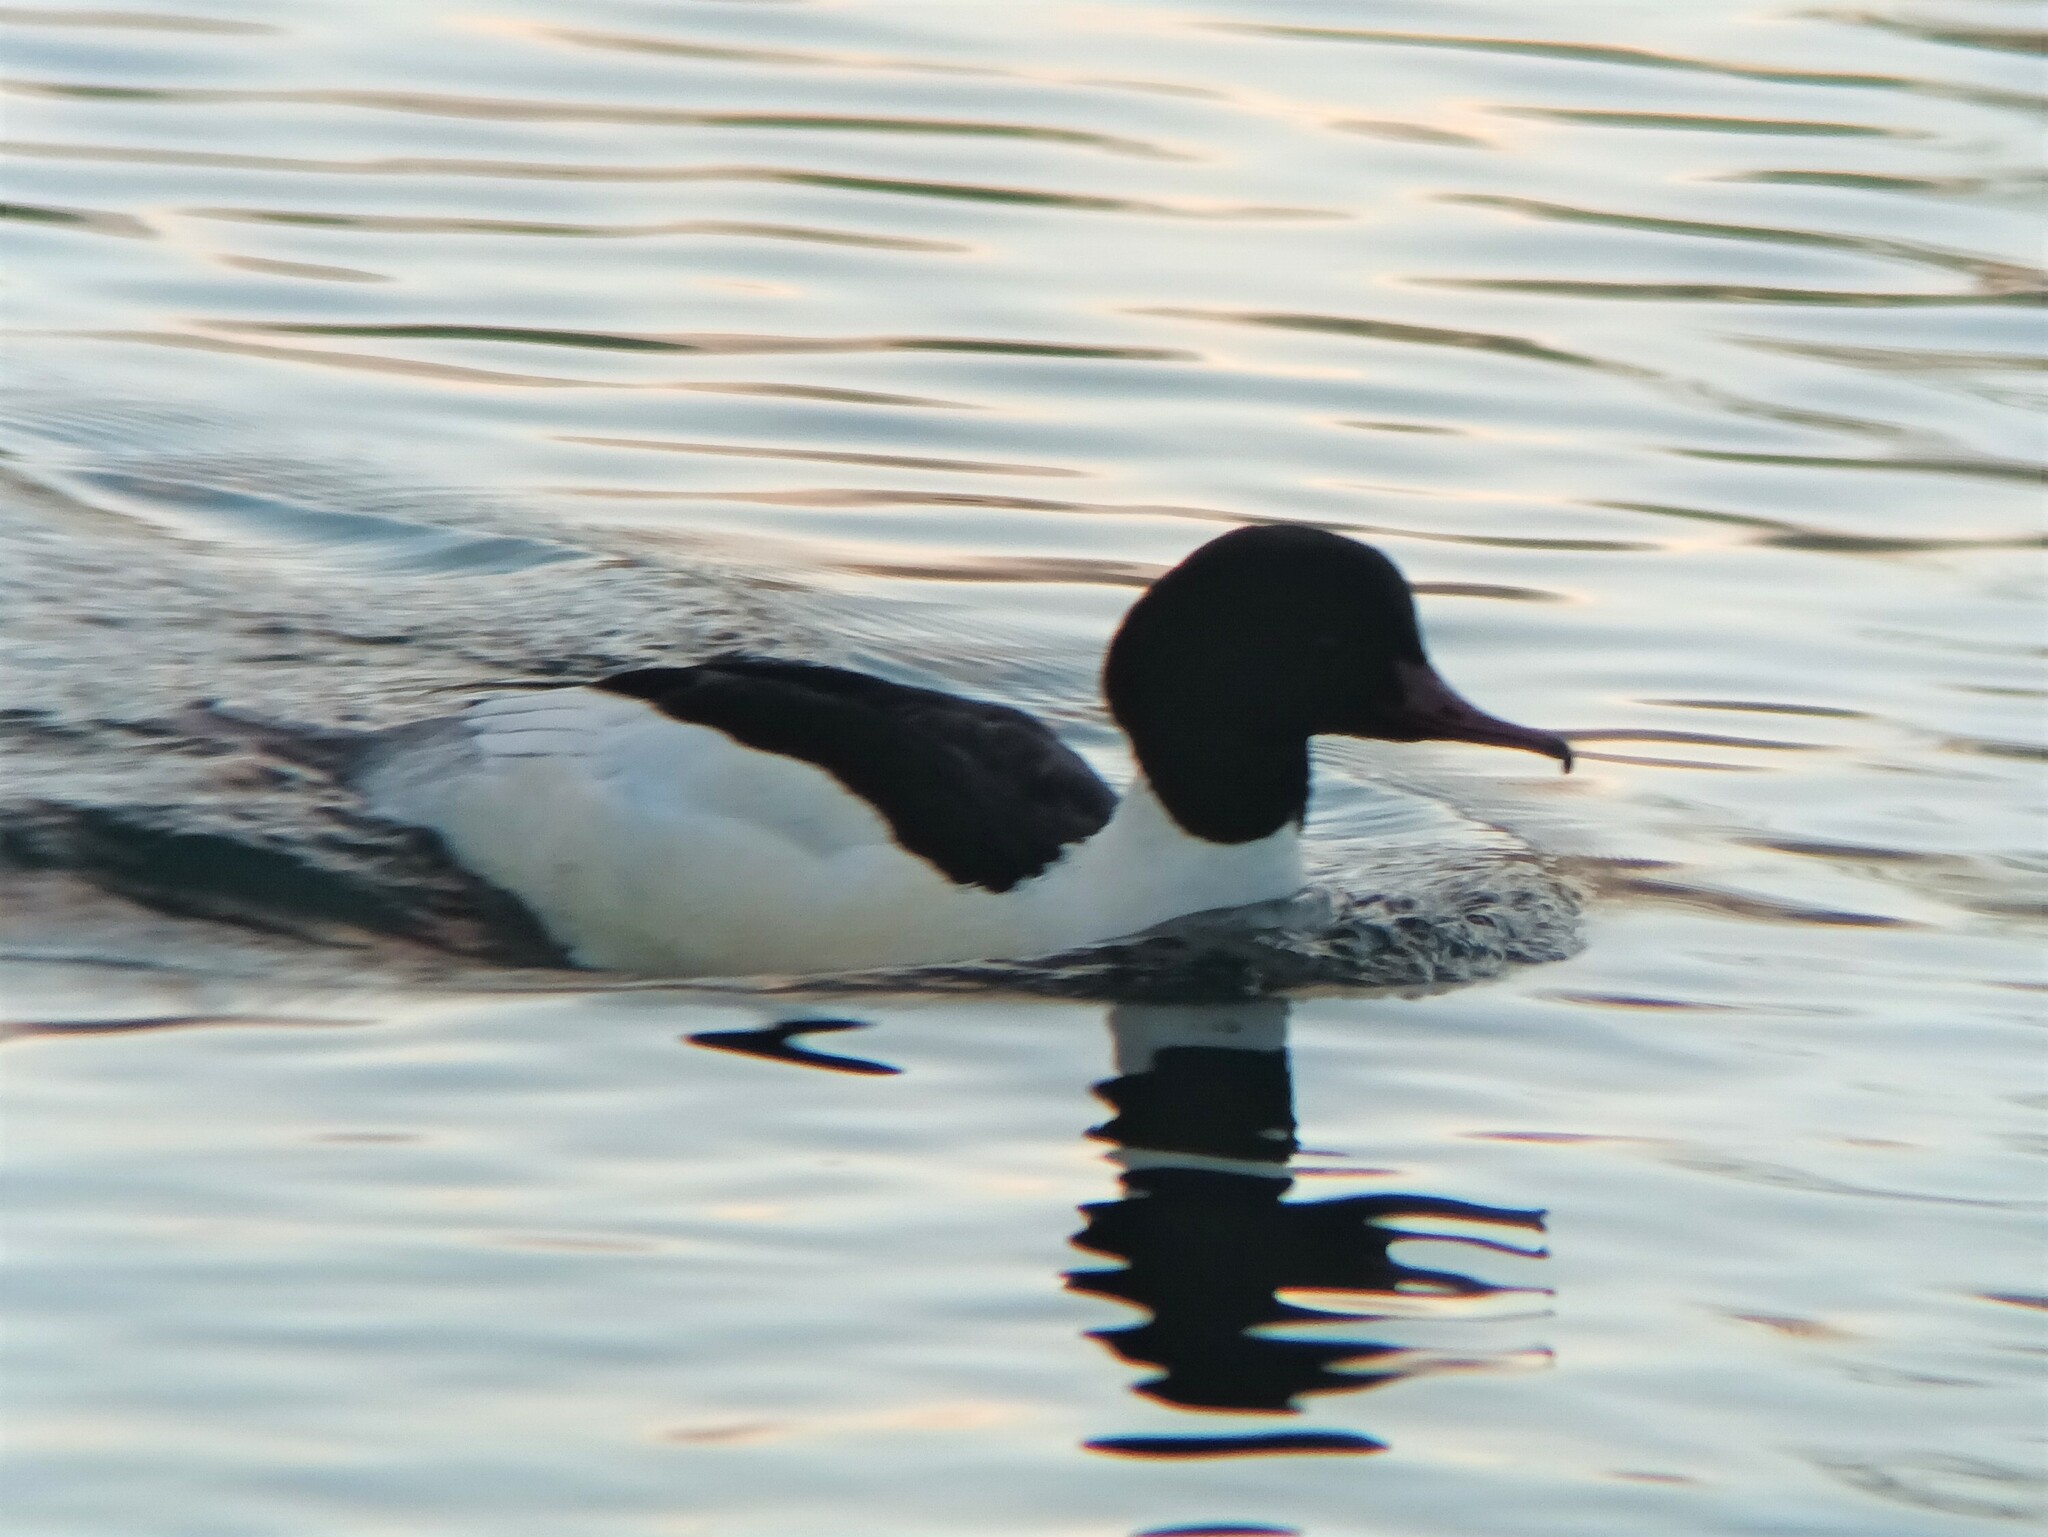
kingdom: Animalia
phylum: Chordata
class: Aves
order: Anseriformes
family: Anatidae
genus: Mergus
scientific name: Mergus merganser
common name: Common merganser
